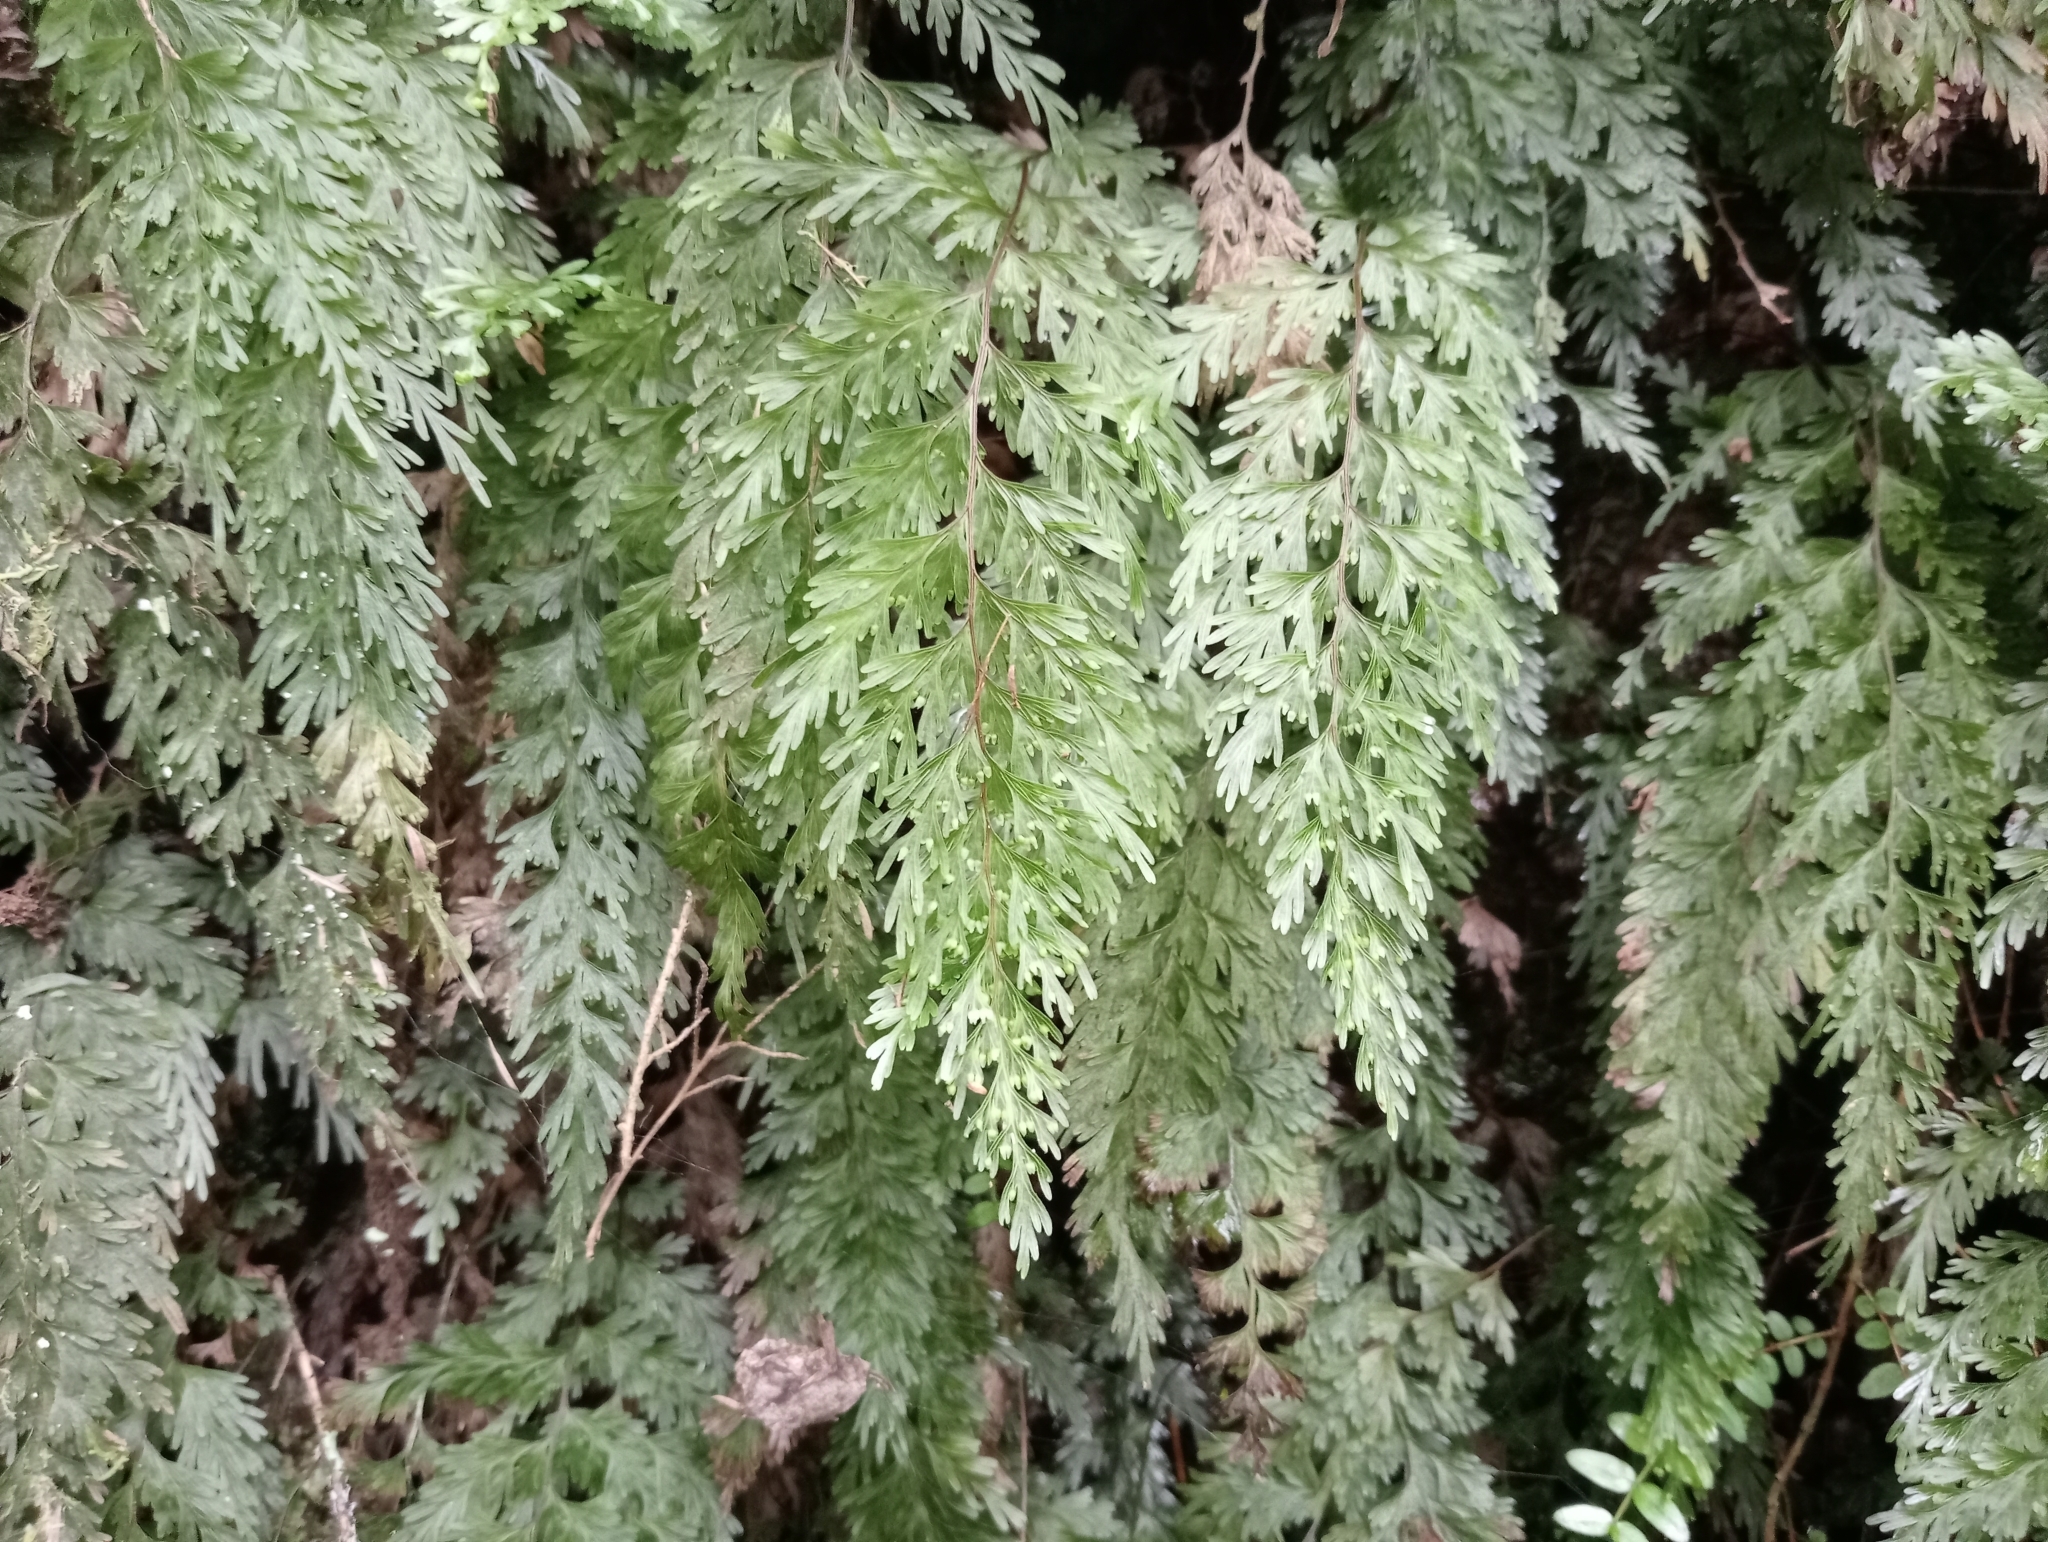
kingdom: Plantae
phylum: Tracheophyta
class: Polypodiopsida
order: Hymenophyllales
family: Hymenophyllaceae
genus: Hymenophyllum
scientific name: Hymenophyllum demissum
